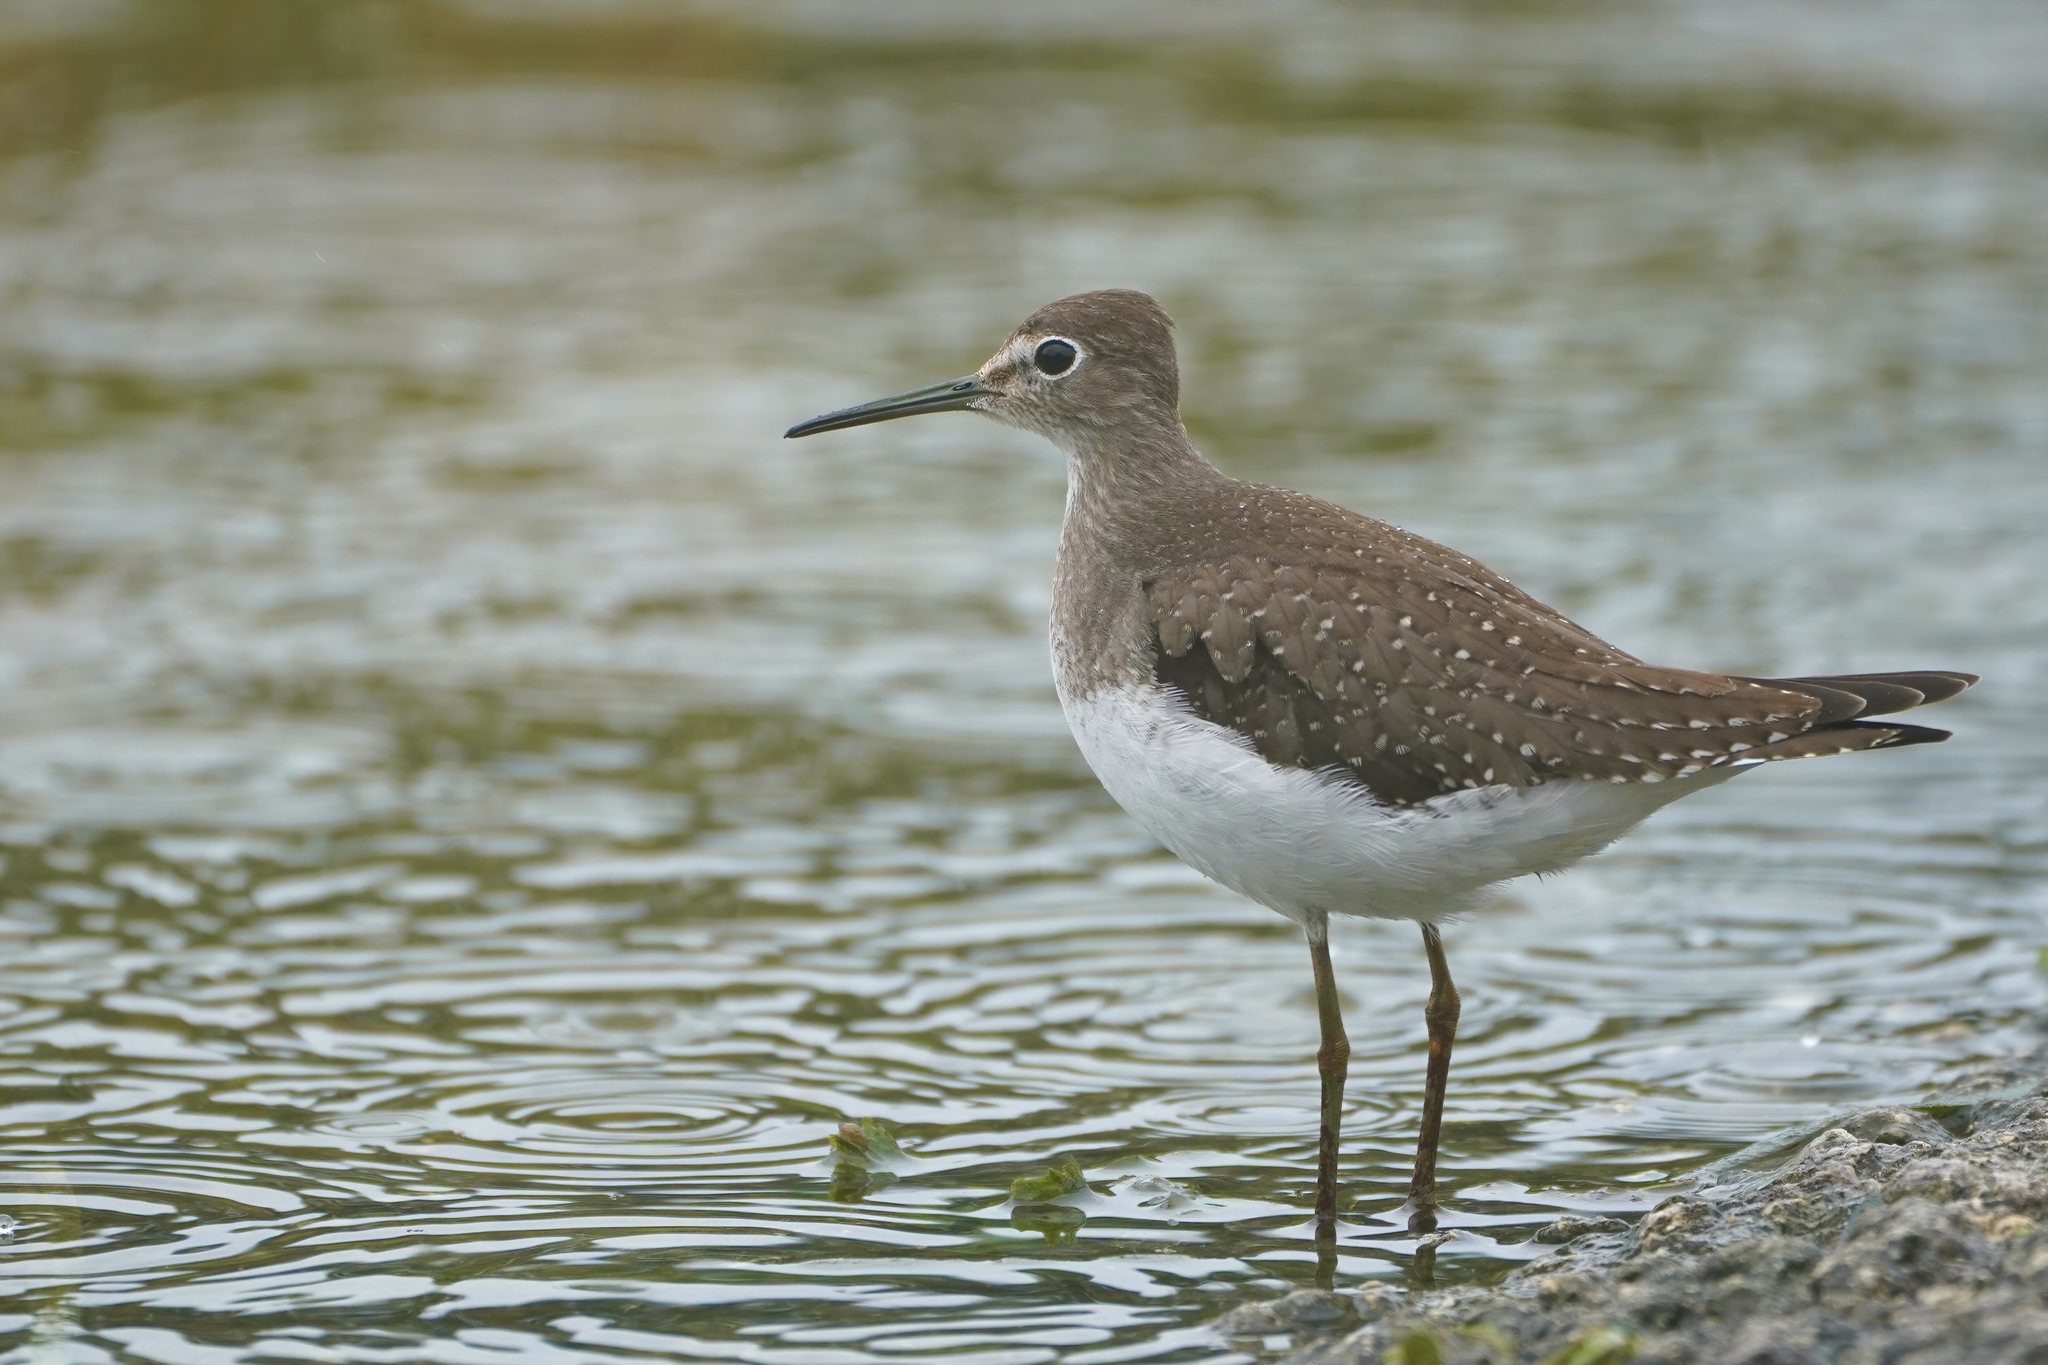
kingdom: Animalia
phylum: Chordata
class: Aves
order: Charadriiformes
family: Scolopacidae
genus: Tringa
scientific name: Tringa solitaria
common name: Solitary sandpiper
